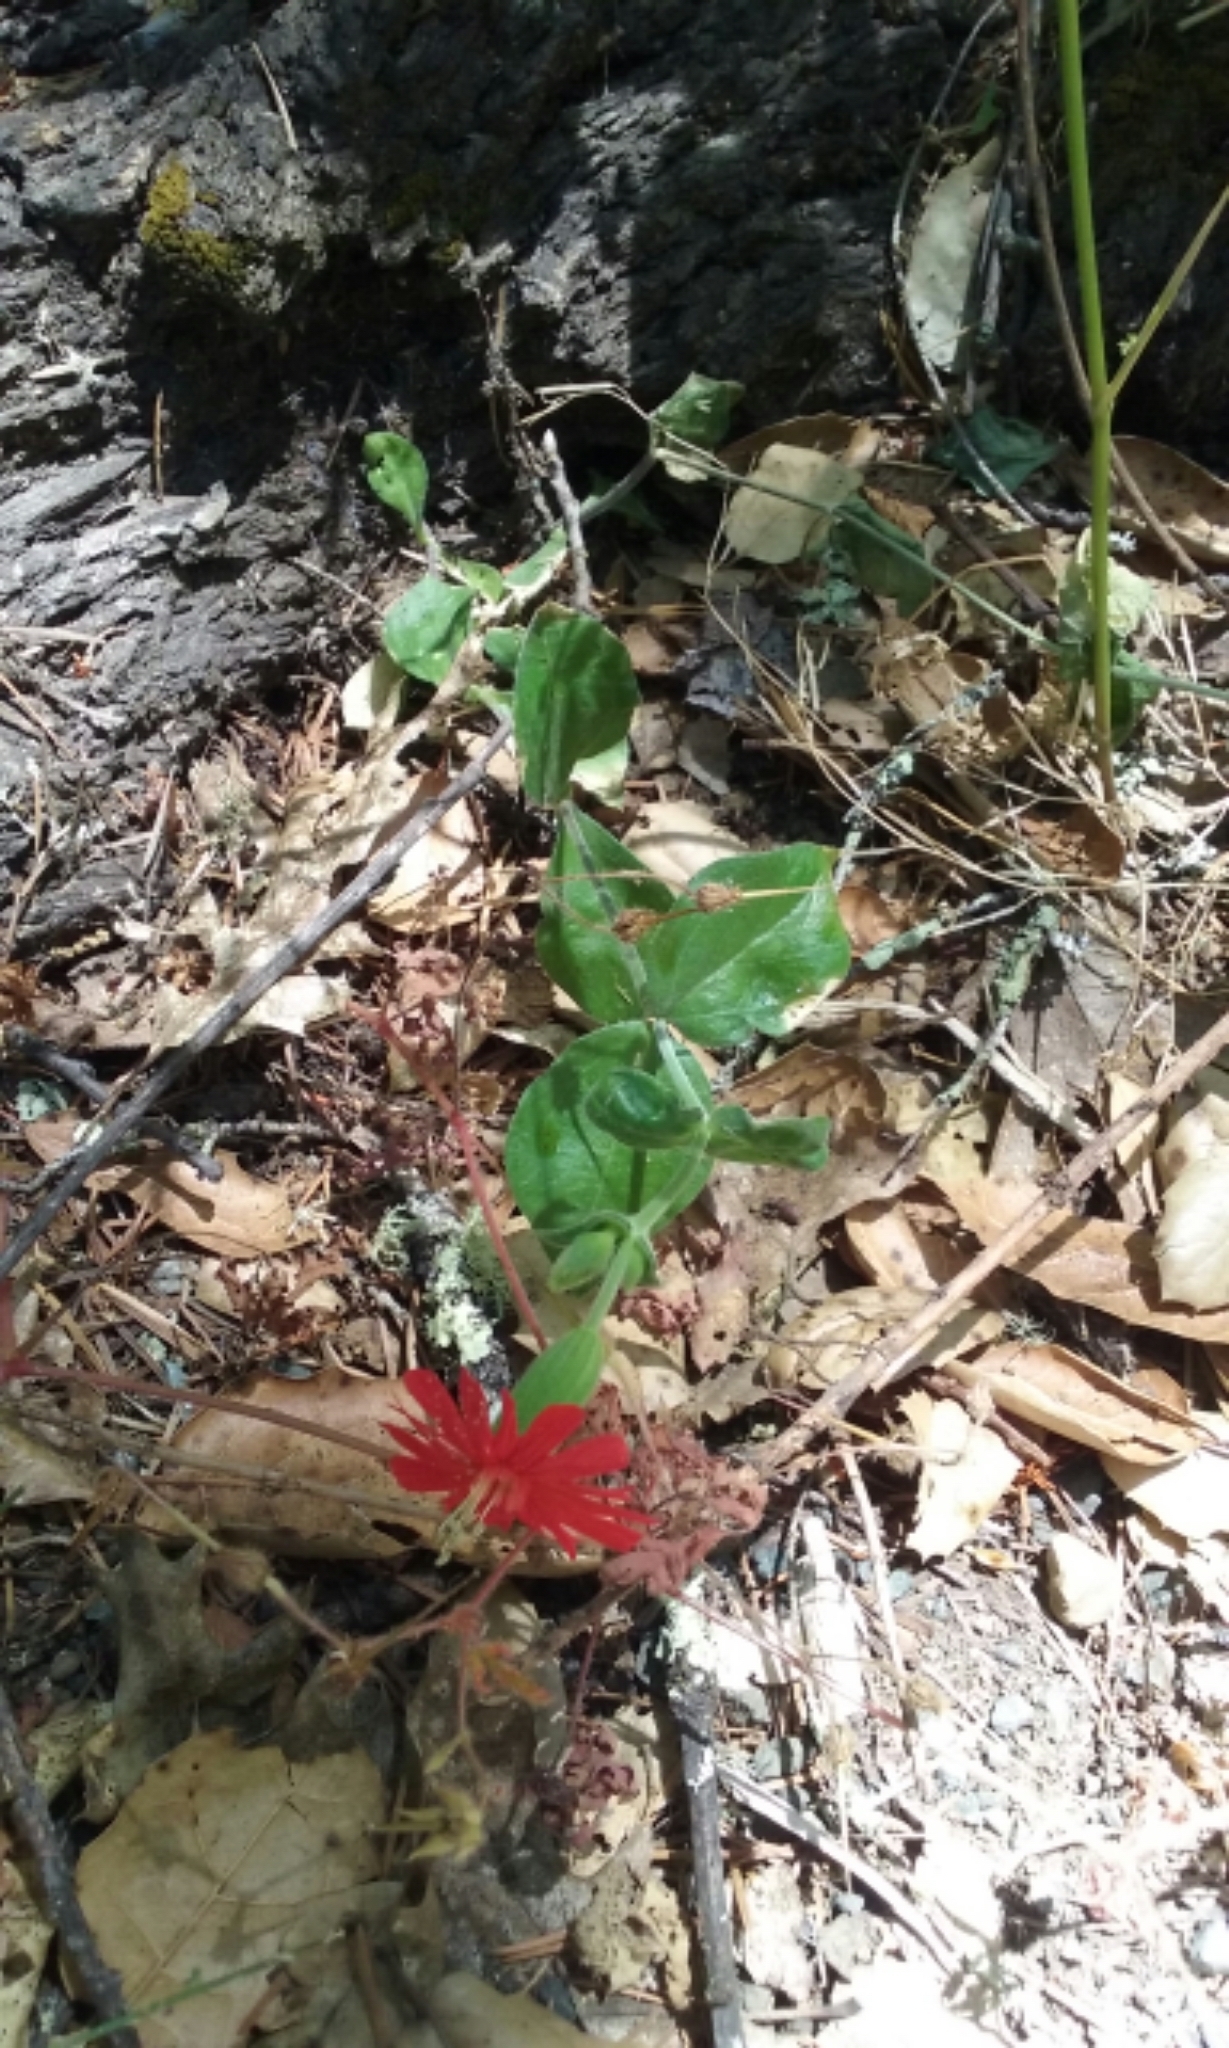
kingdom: Plantae
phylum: Tracheophyta
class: Magnoliopsida
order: Caryophyllales
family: Caryophyllaceae
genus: Silene
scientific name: Silene laciniata
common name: Indian-pink
